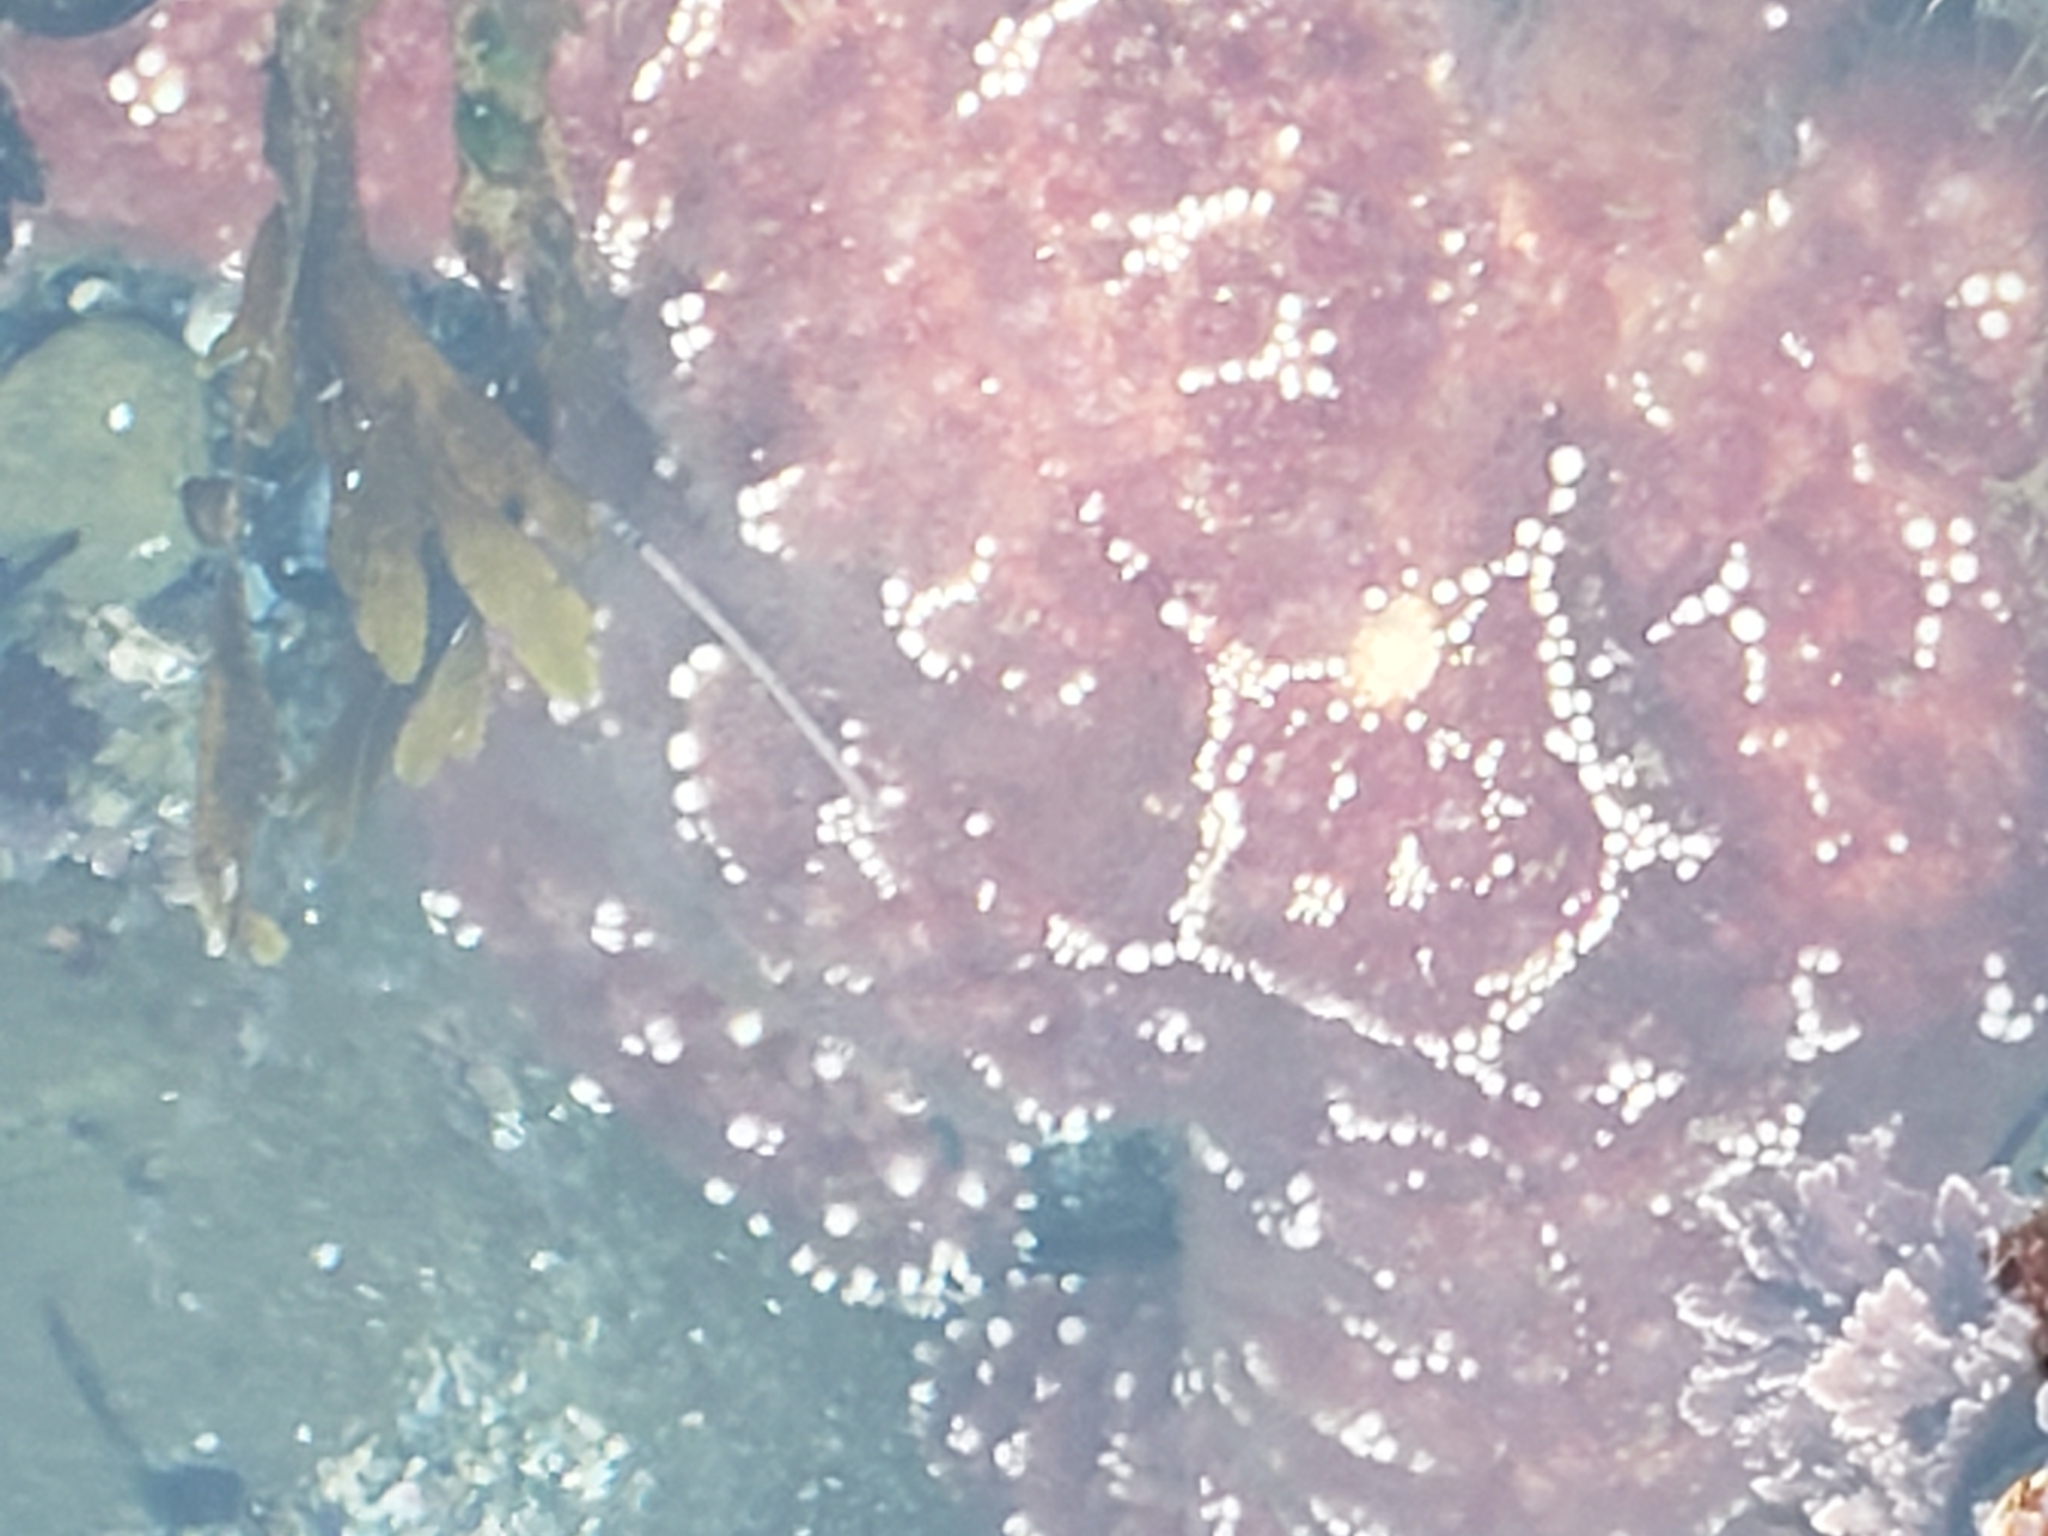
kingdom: Animalia
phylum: Echinodermata
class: Asteroidea
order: Forcipulatida
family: Asteriidae
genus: Pisaster
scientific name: Pisaster ochraceus
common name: Ochre stars
